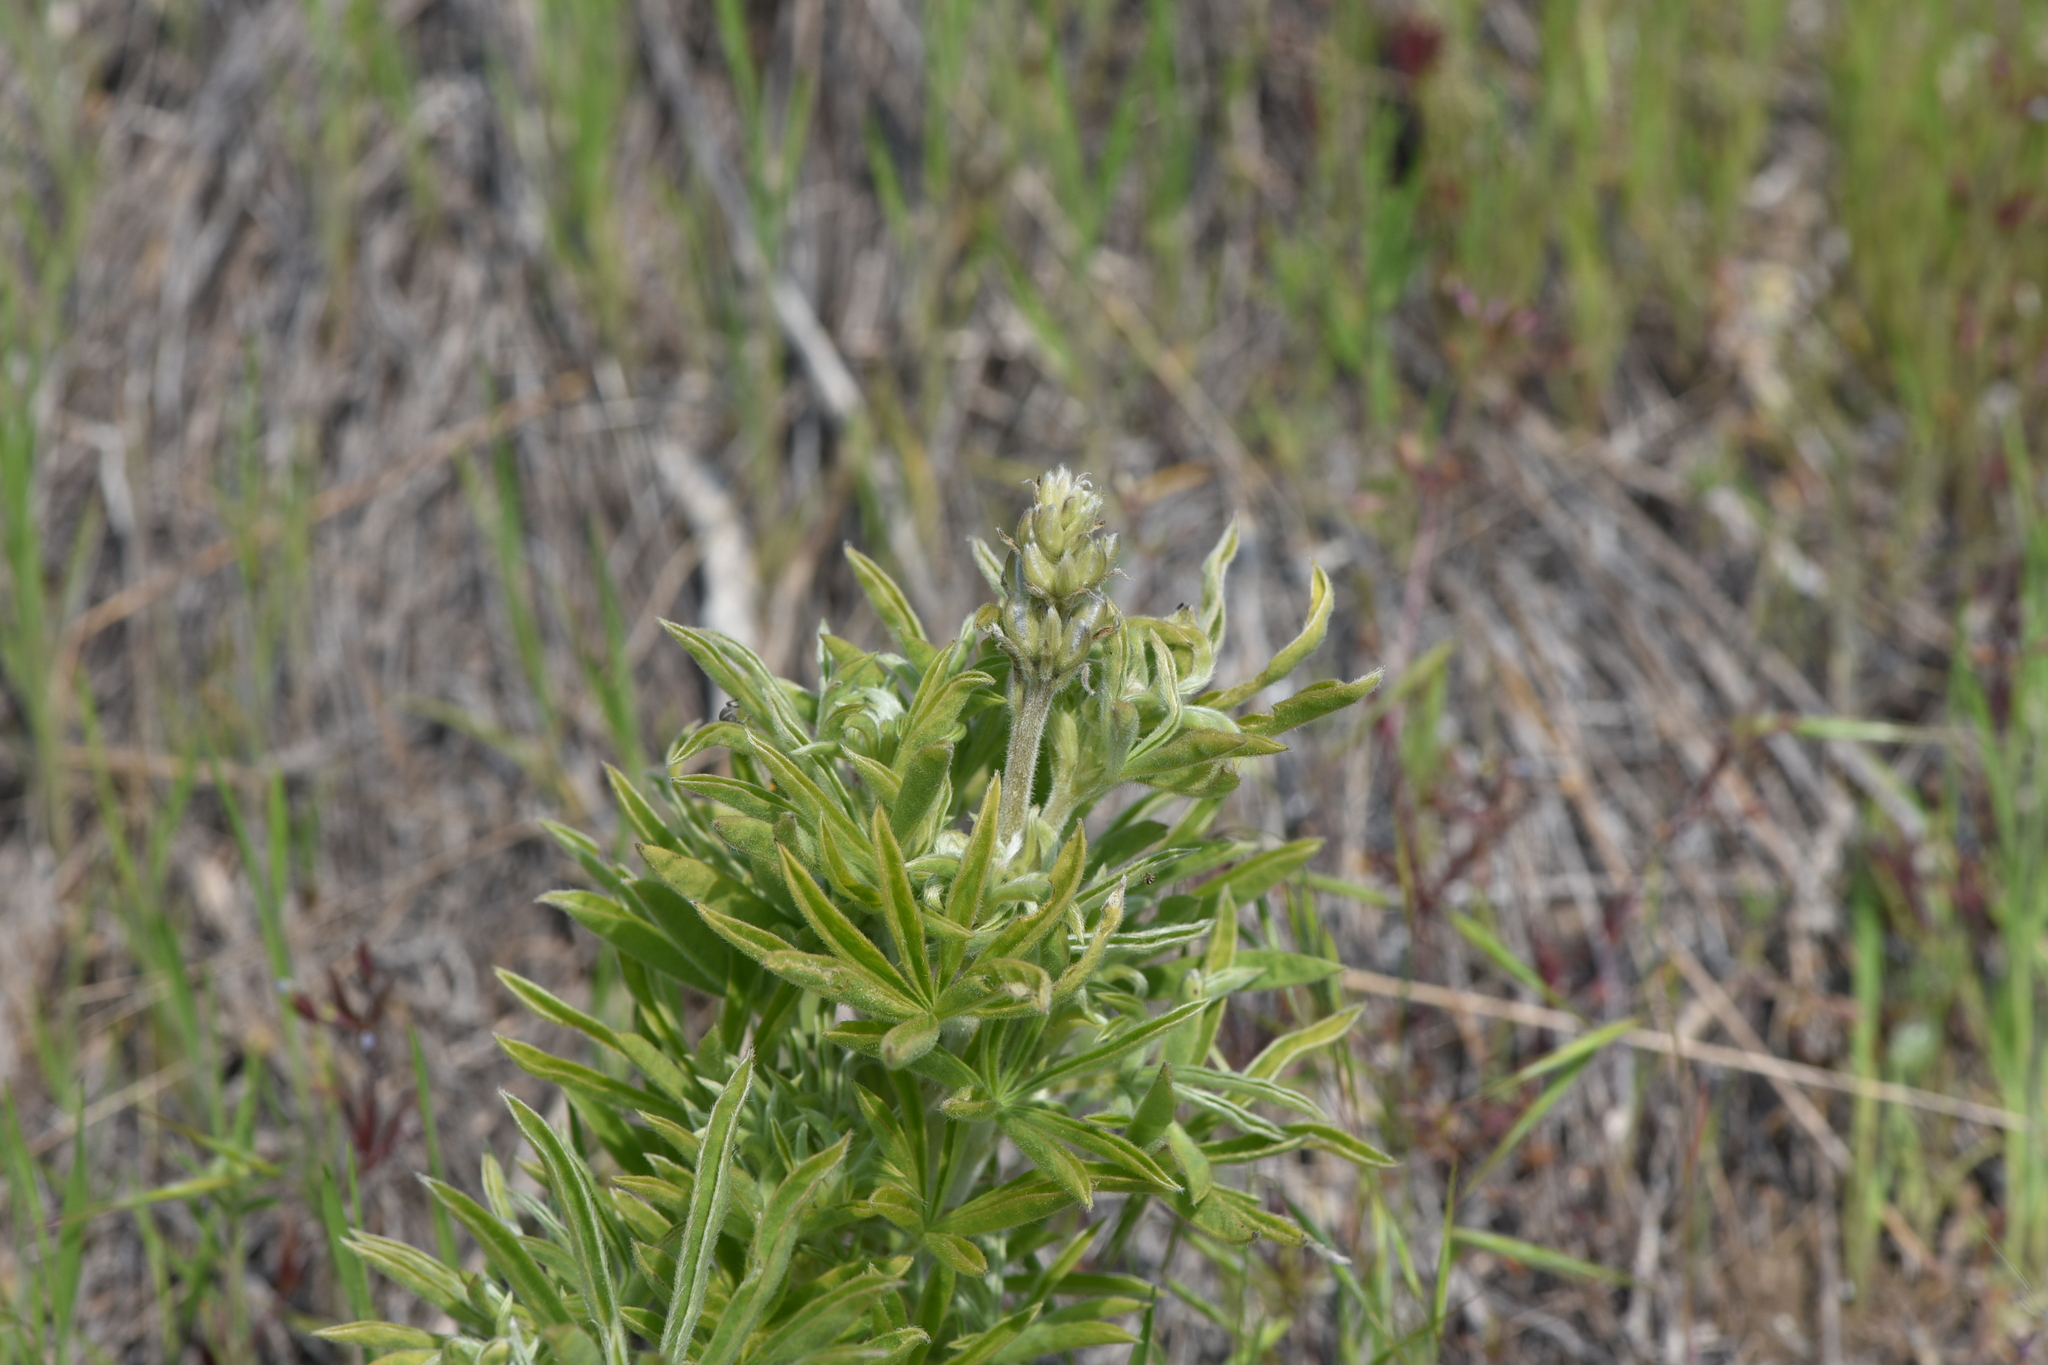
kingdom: Plantae
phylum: Tracheophyta
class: Magnoliopsida
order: Fabales
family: Fabaceae
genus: Lupinus
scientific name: Lupinus sericeus
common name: Silky lupine
